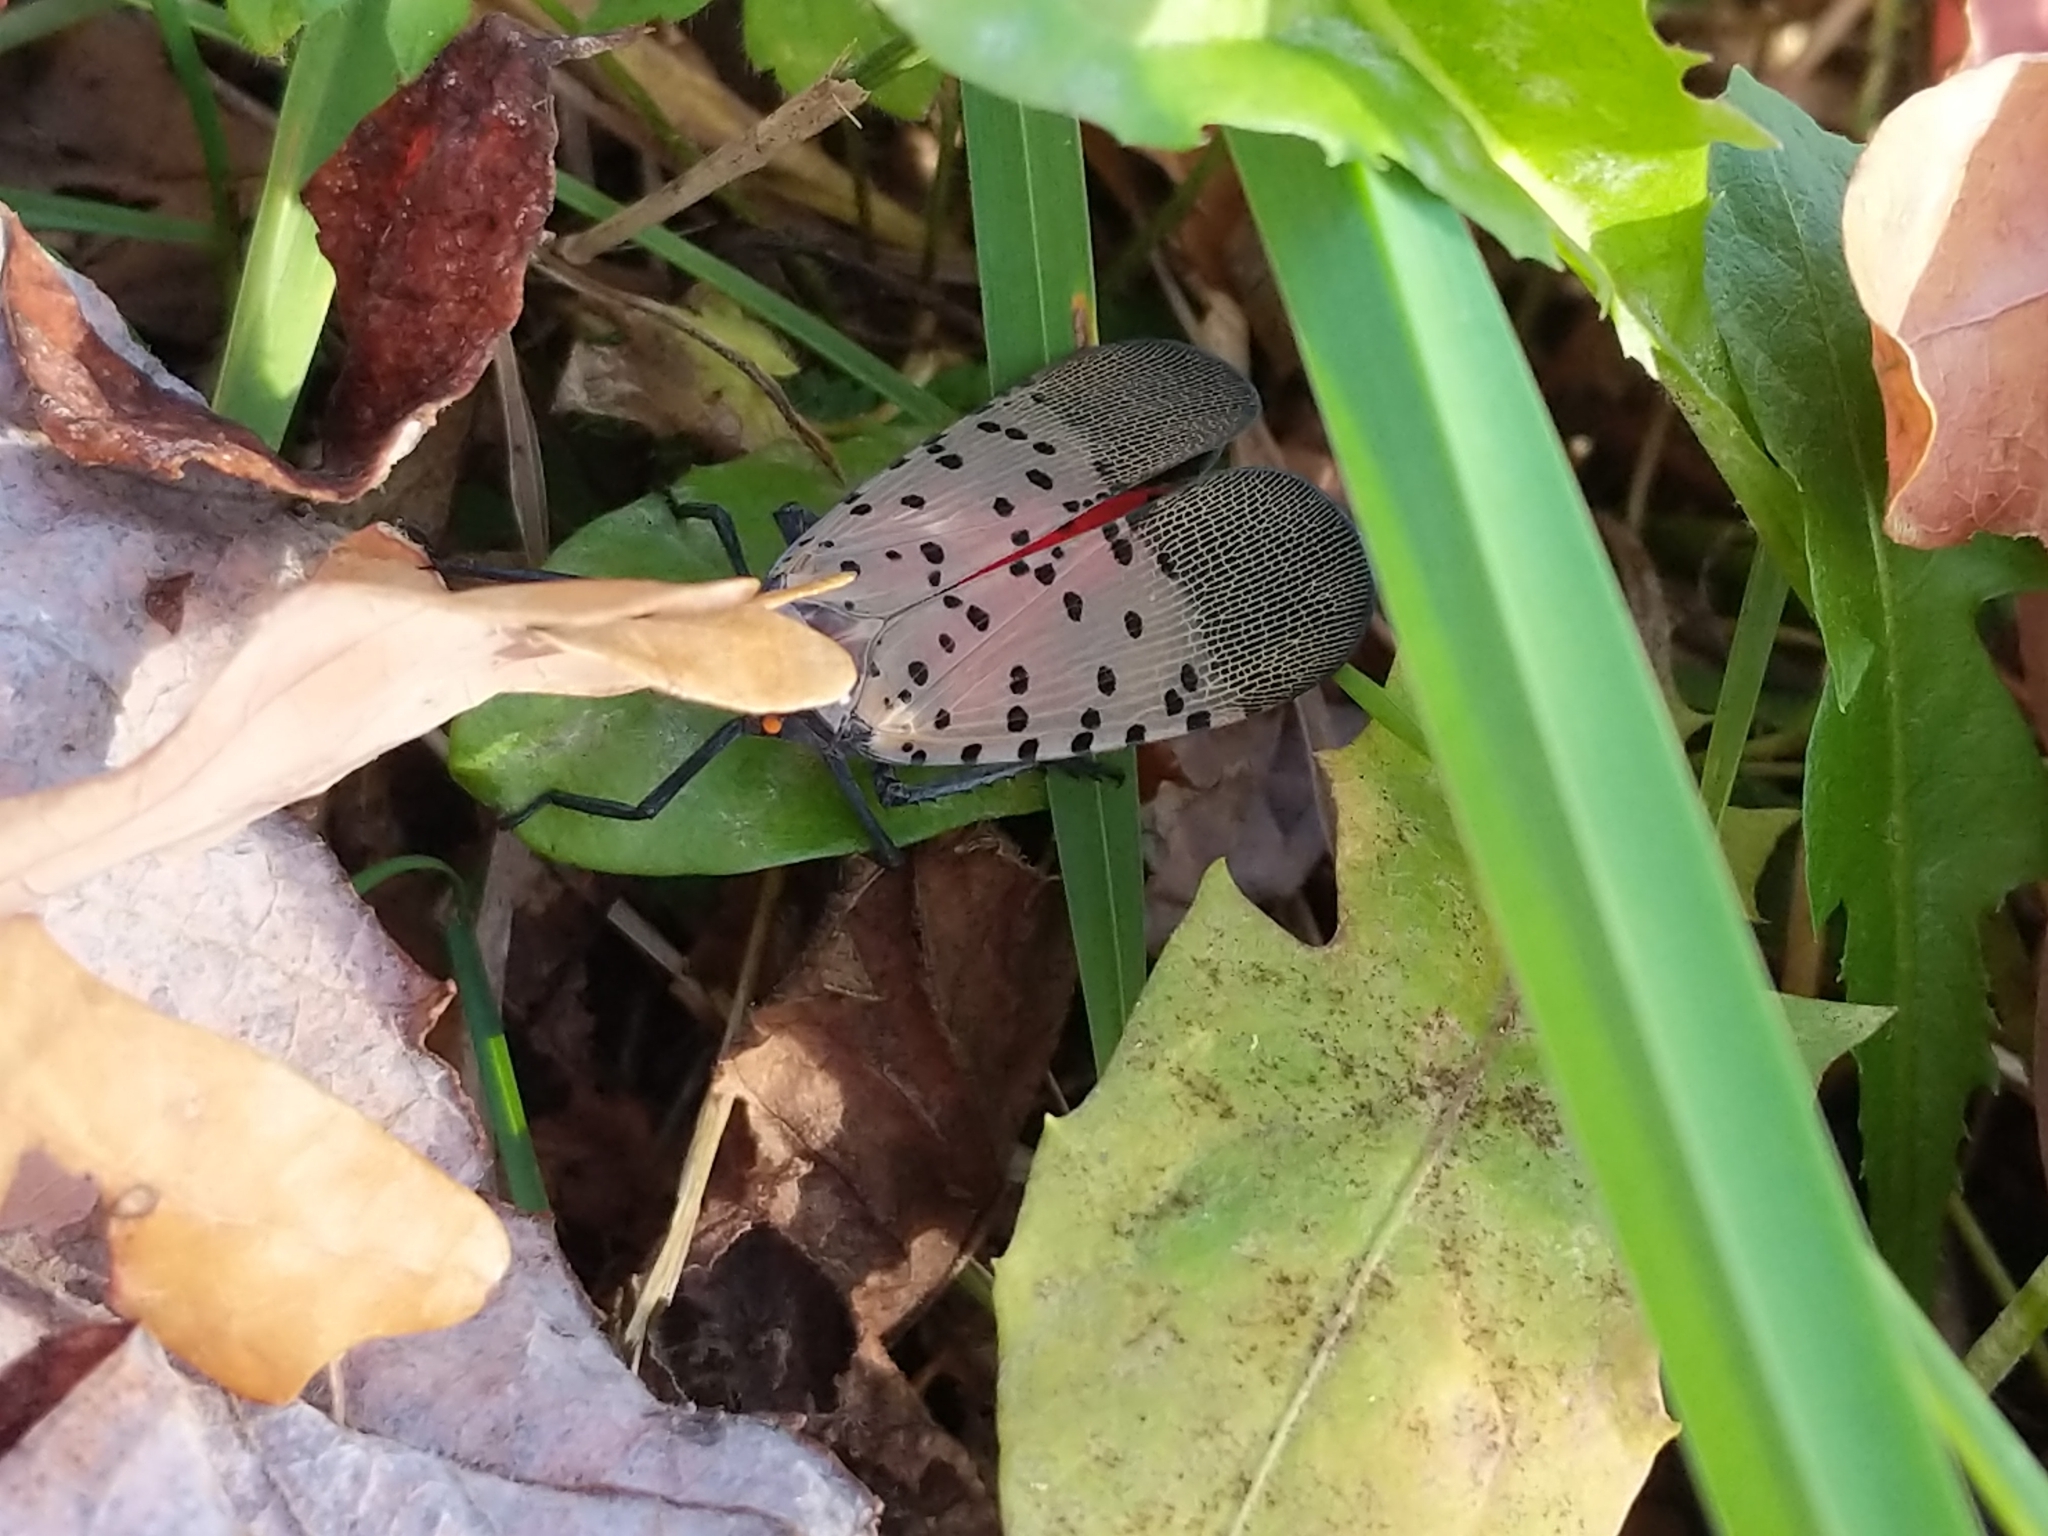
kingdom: Animalia
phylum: Arthropoda
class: Insecta
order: Hemiptera
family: Fulgoridae
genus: Lycorma
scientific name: Lycorma delicatula
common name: Spotted lanternfly
